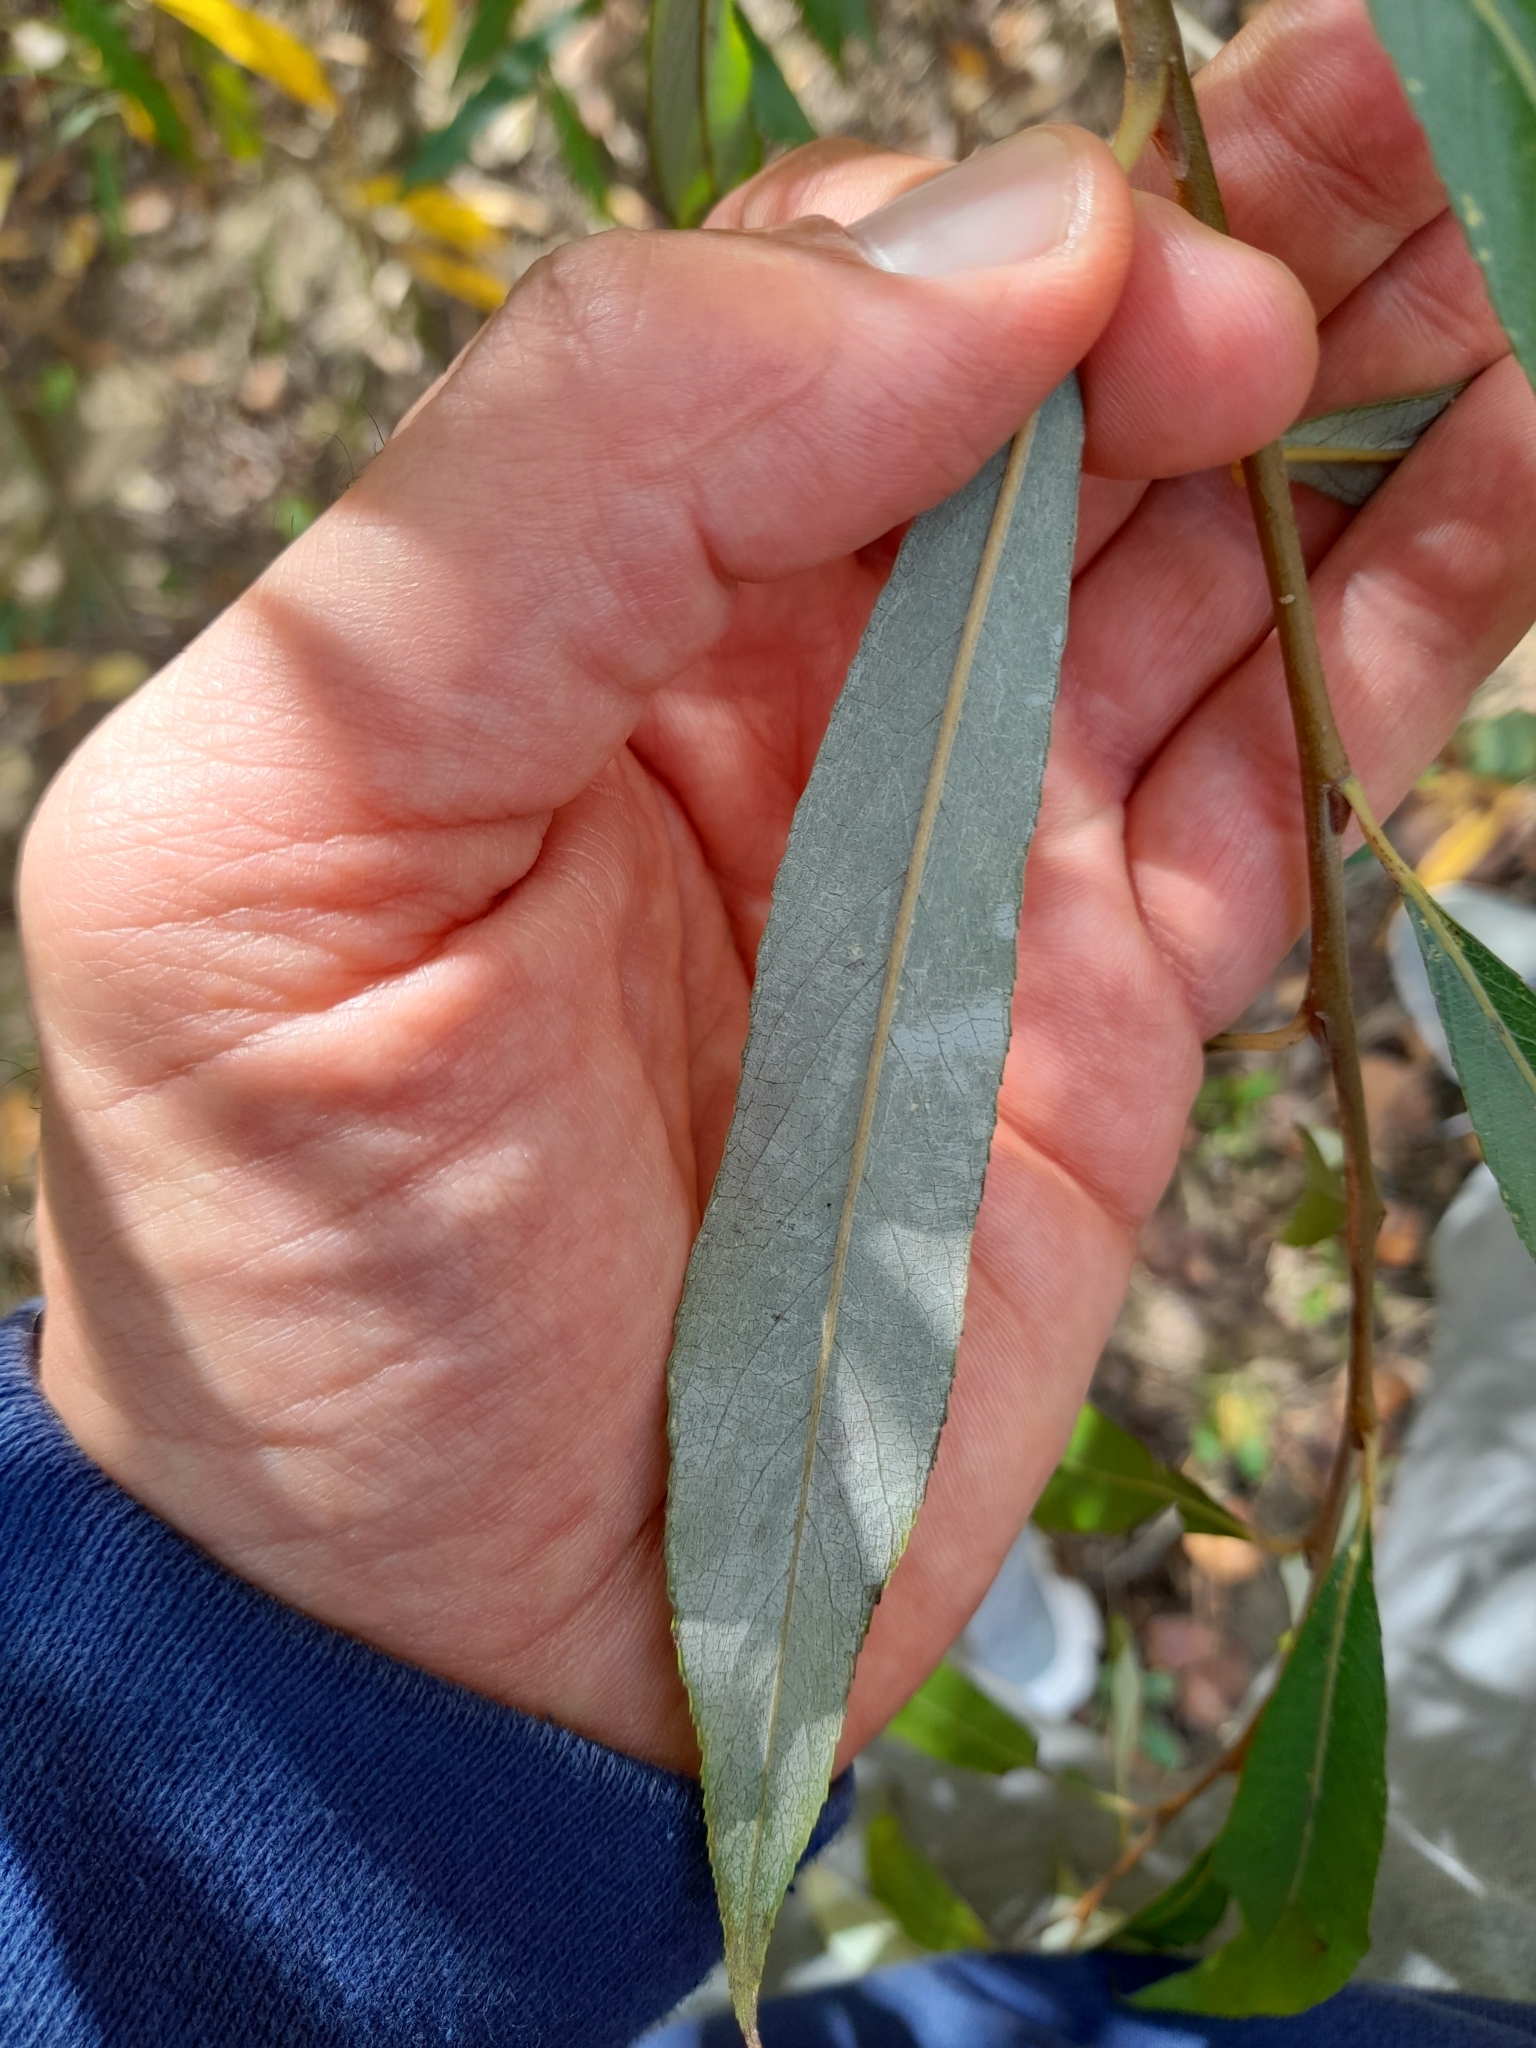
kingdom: Plantae
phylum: Tracheophyta
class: Magnoliopsida
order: Malpighiales
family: Salicaceae
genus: Salix
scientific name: Salix alba
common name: White willow
